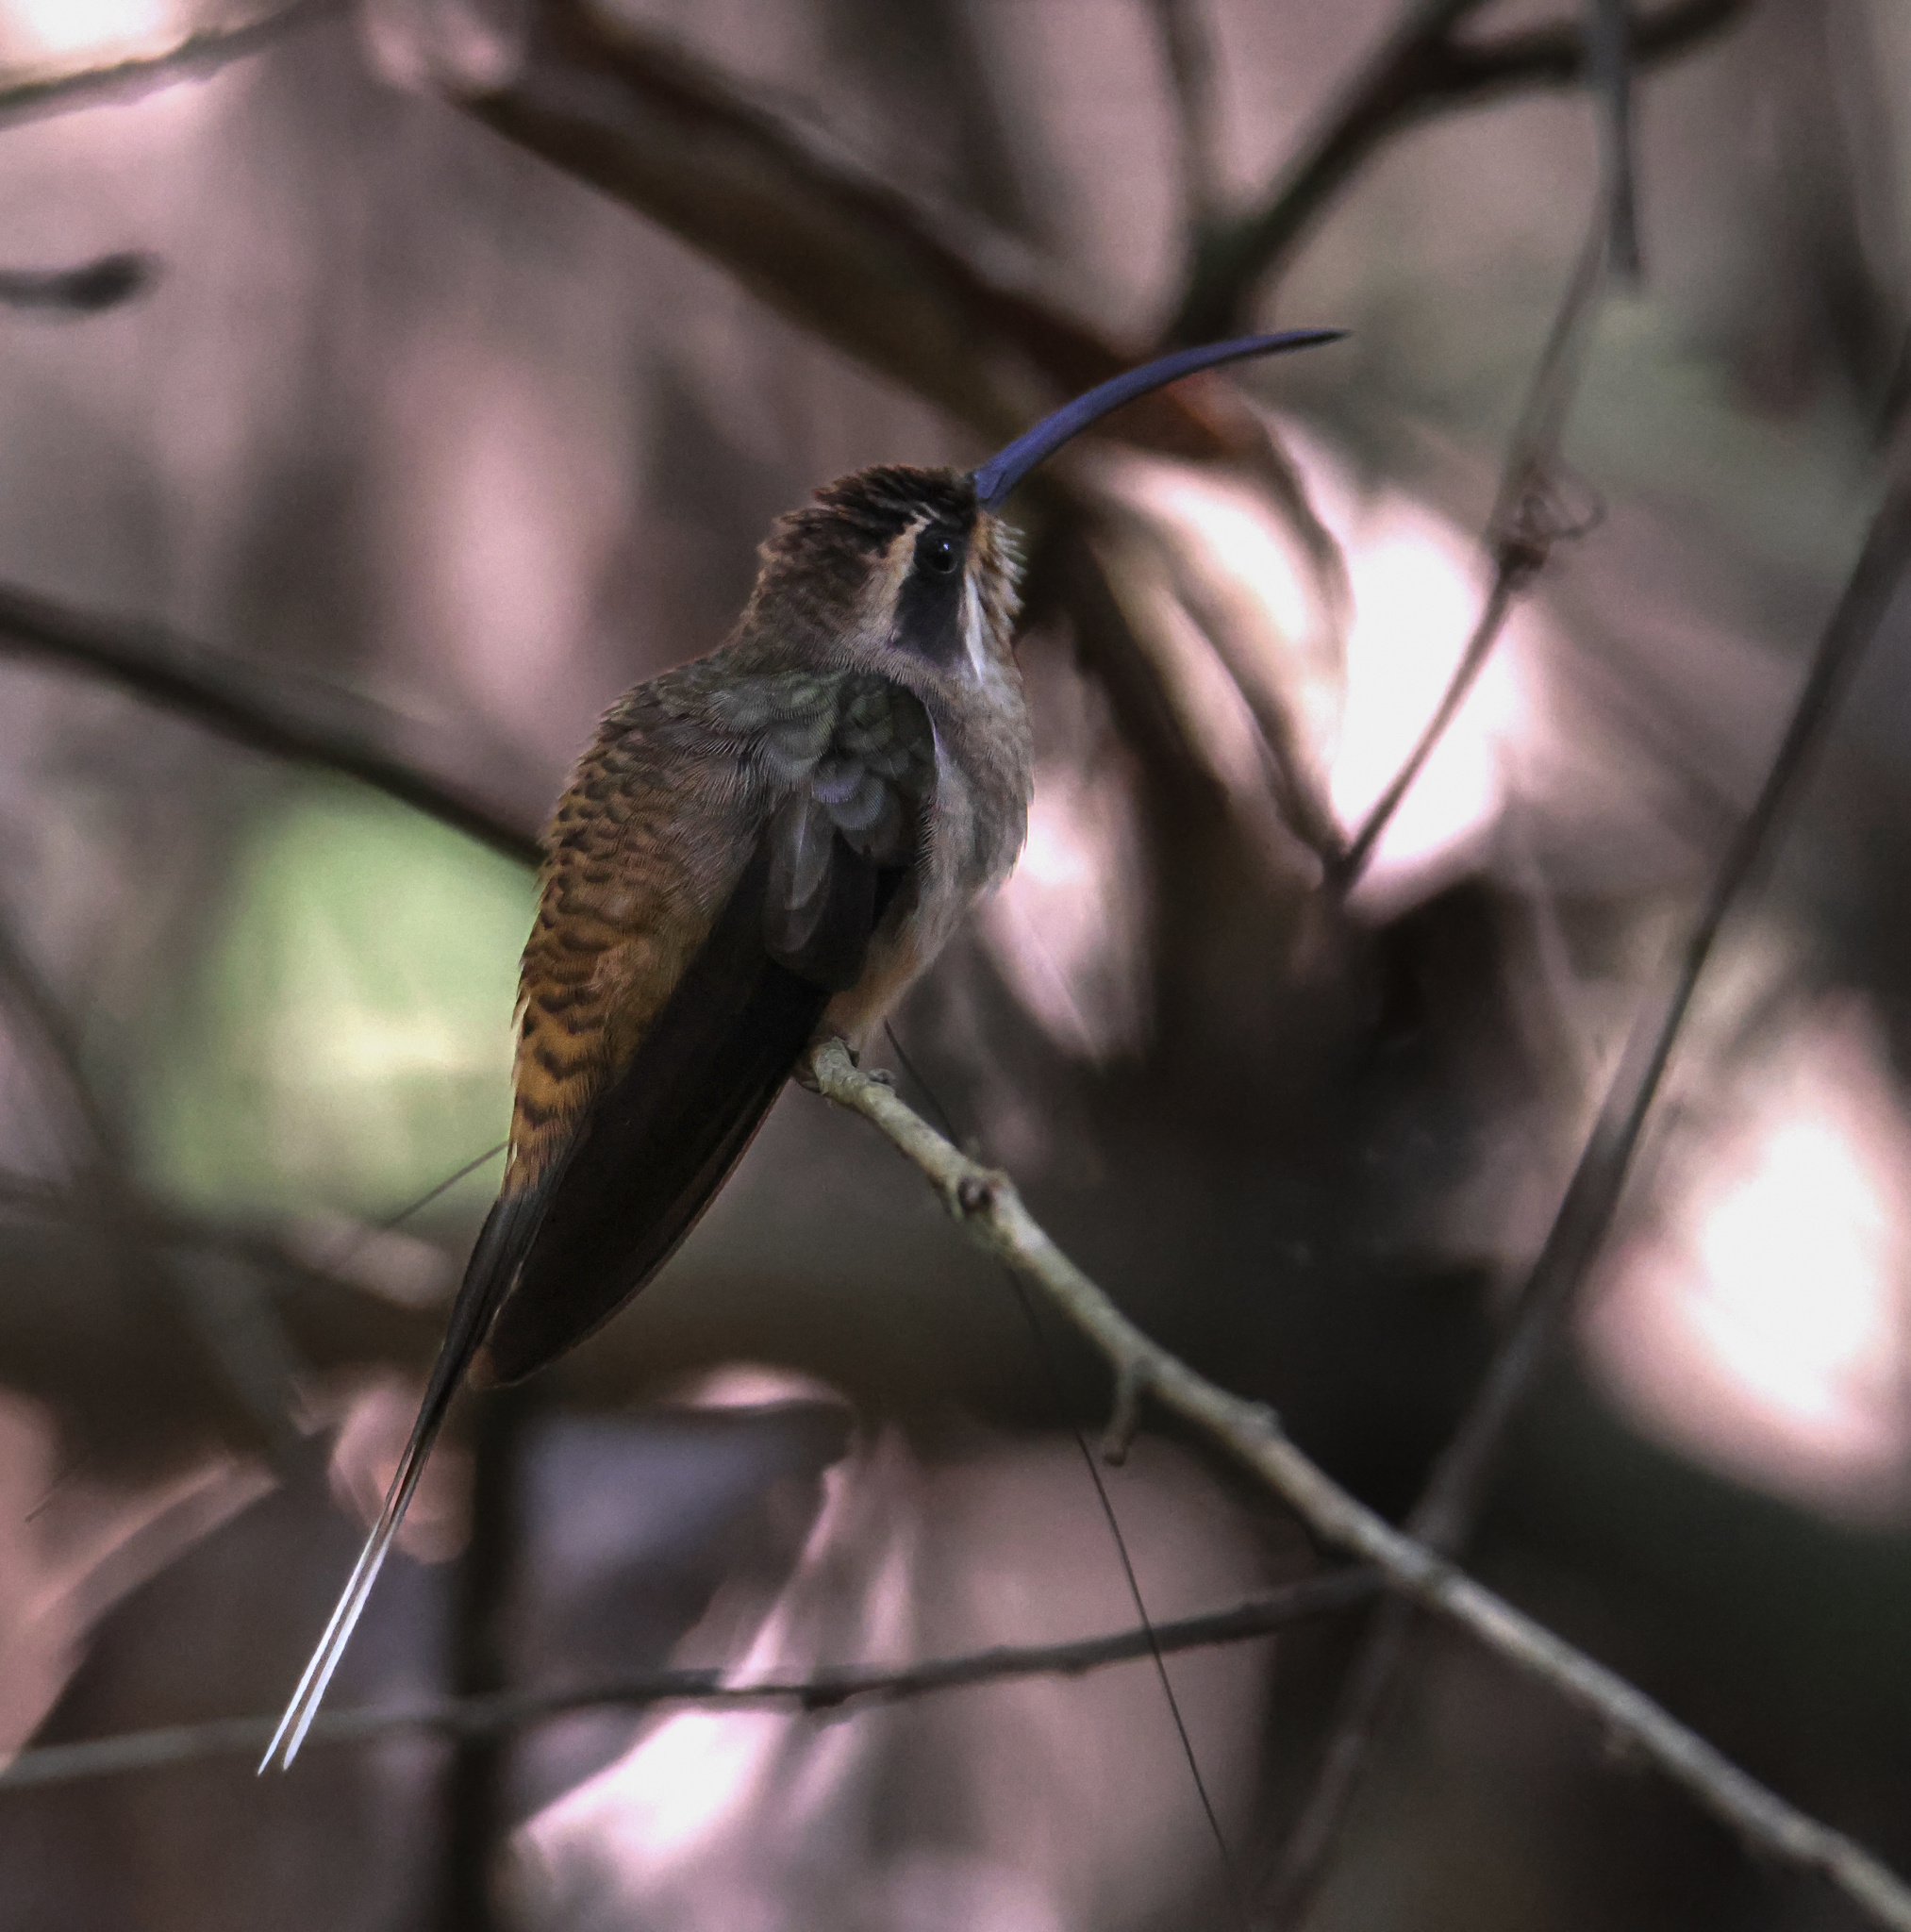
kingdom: Animalia
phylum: Chordata
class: Aves
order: Apodiformes
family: Trochilidae
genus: Phaethornis
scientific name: Phaethornis longirostris
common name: Long-billed hermit
